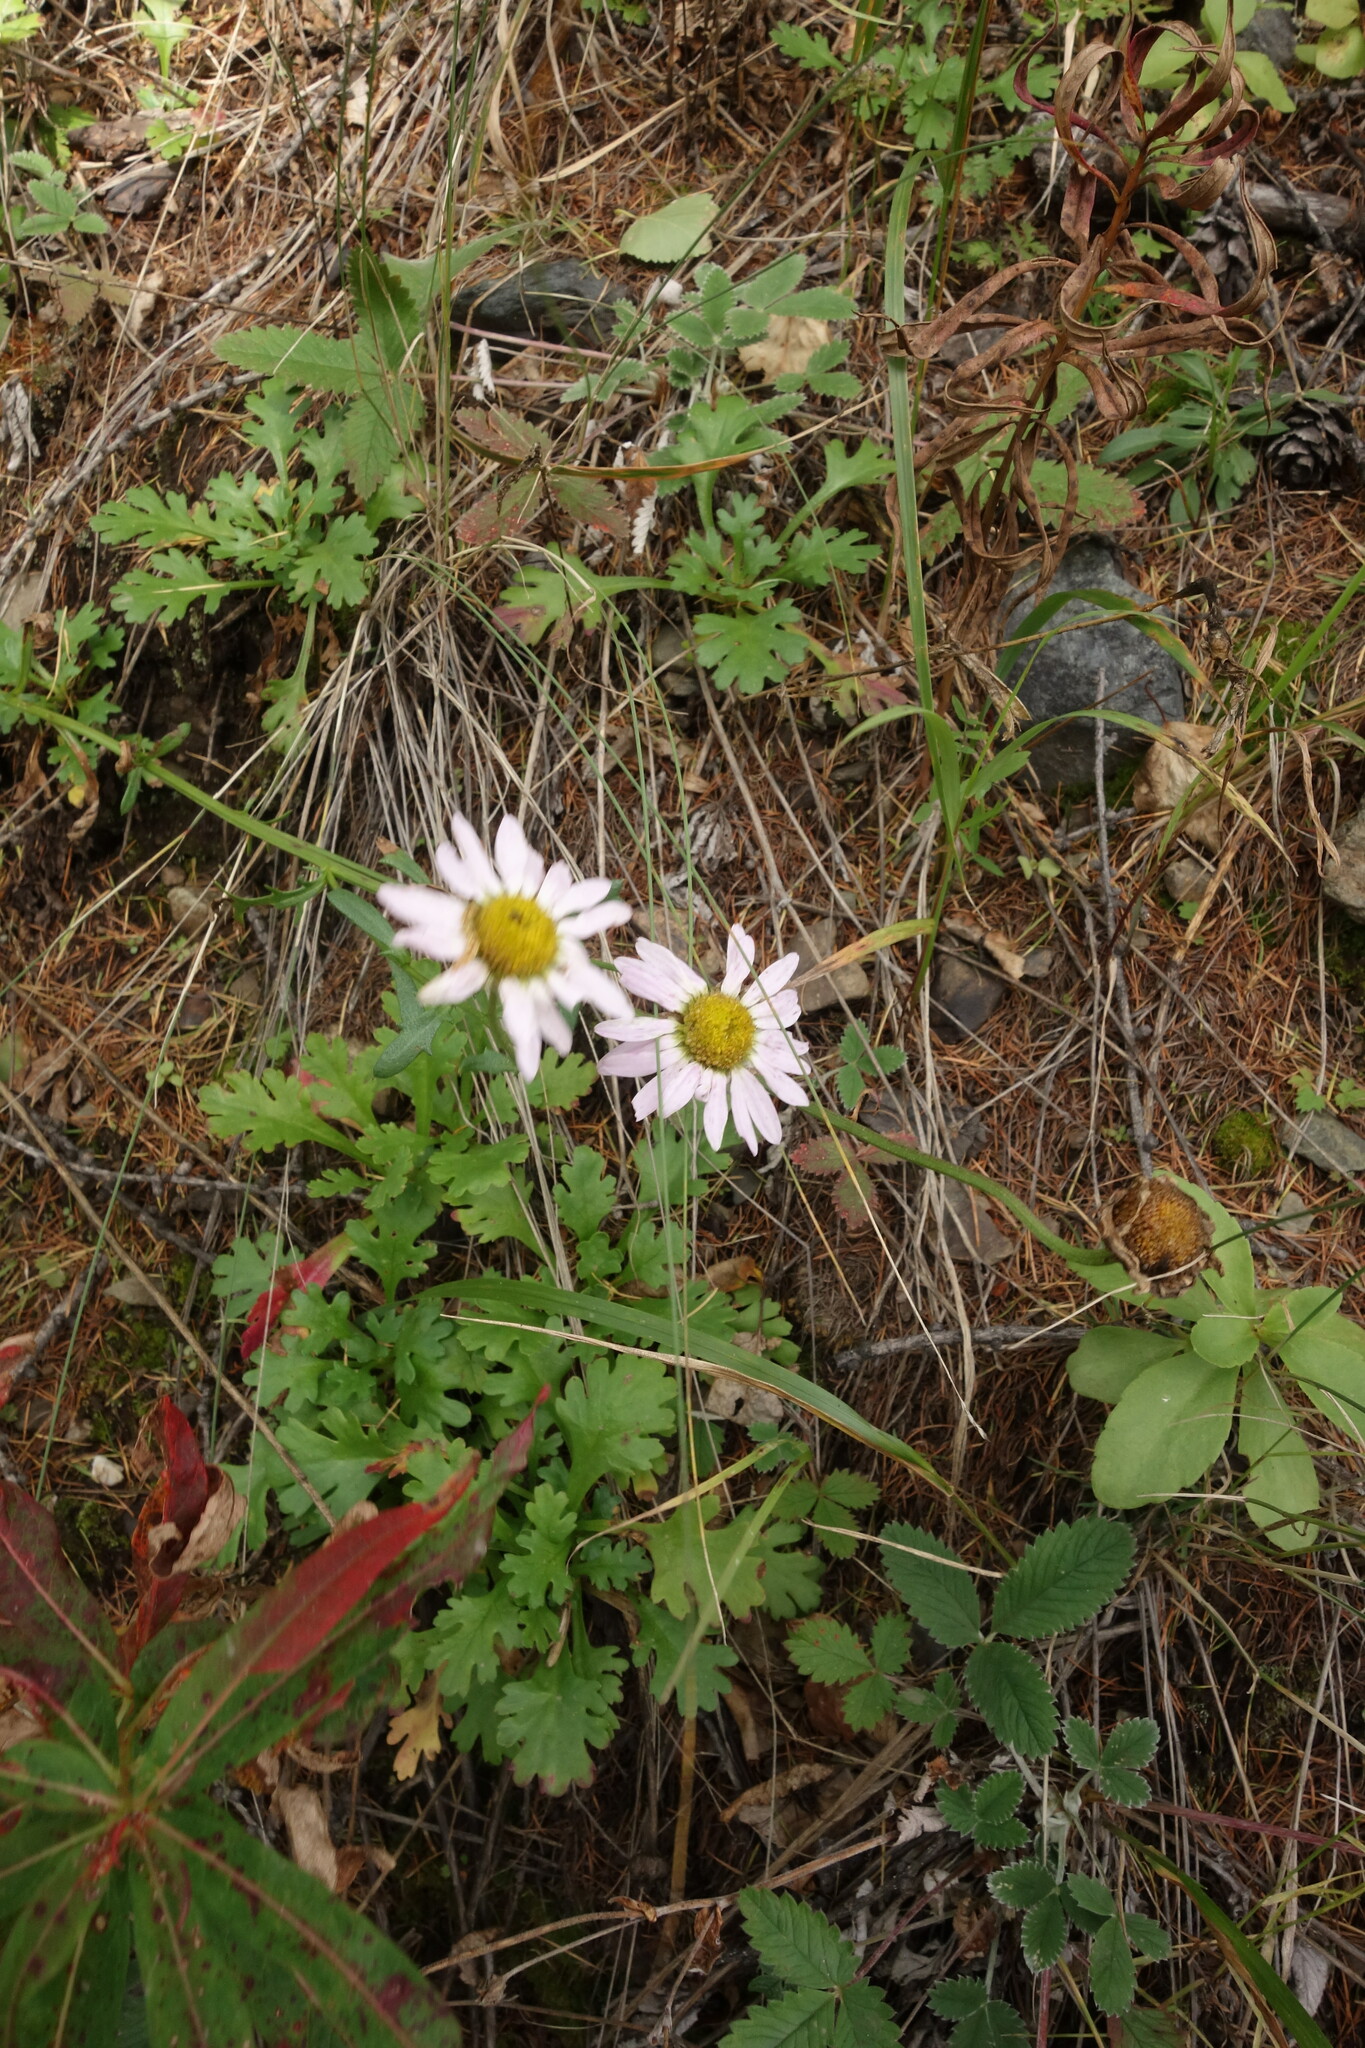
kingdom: Plantae
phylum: Tracheophyta
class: Magnoliopsida
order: Asterales
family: Asteraceae
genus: Chrysanthemum
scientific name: Chrysanthemum zawadzkii
